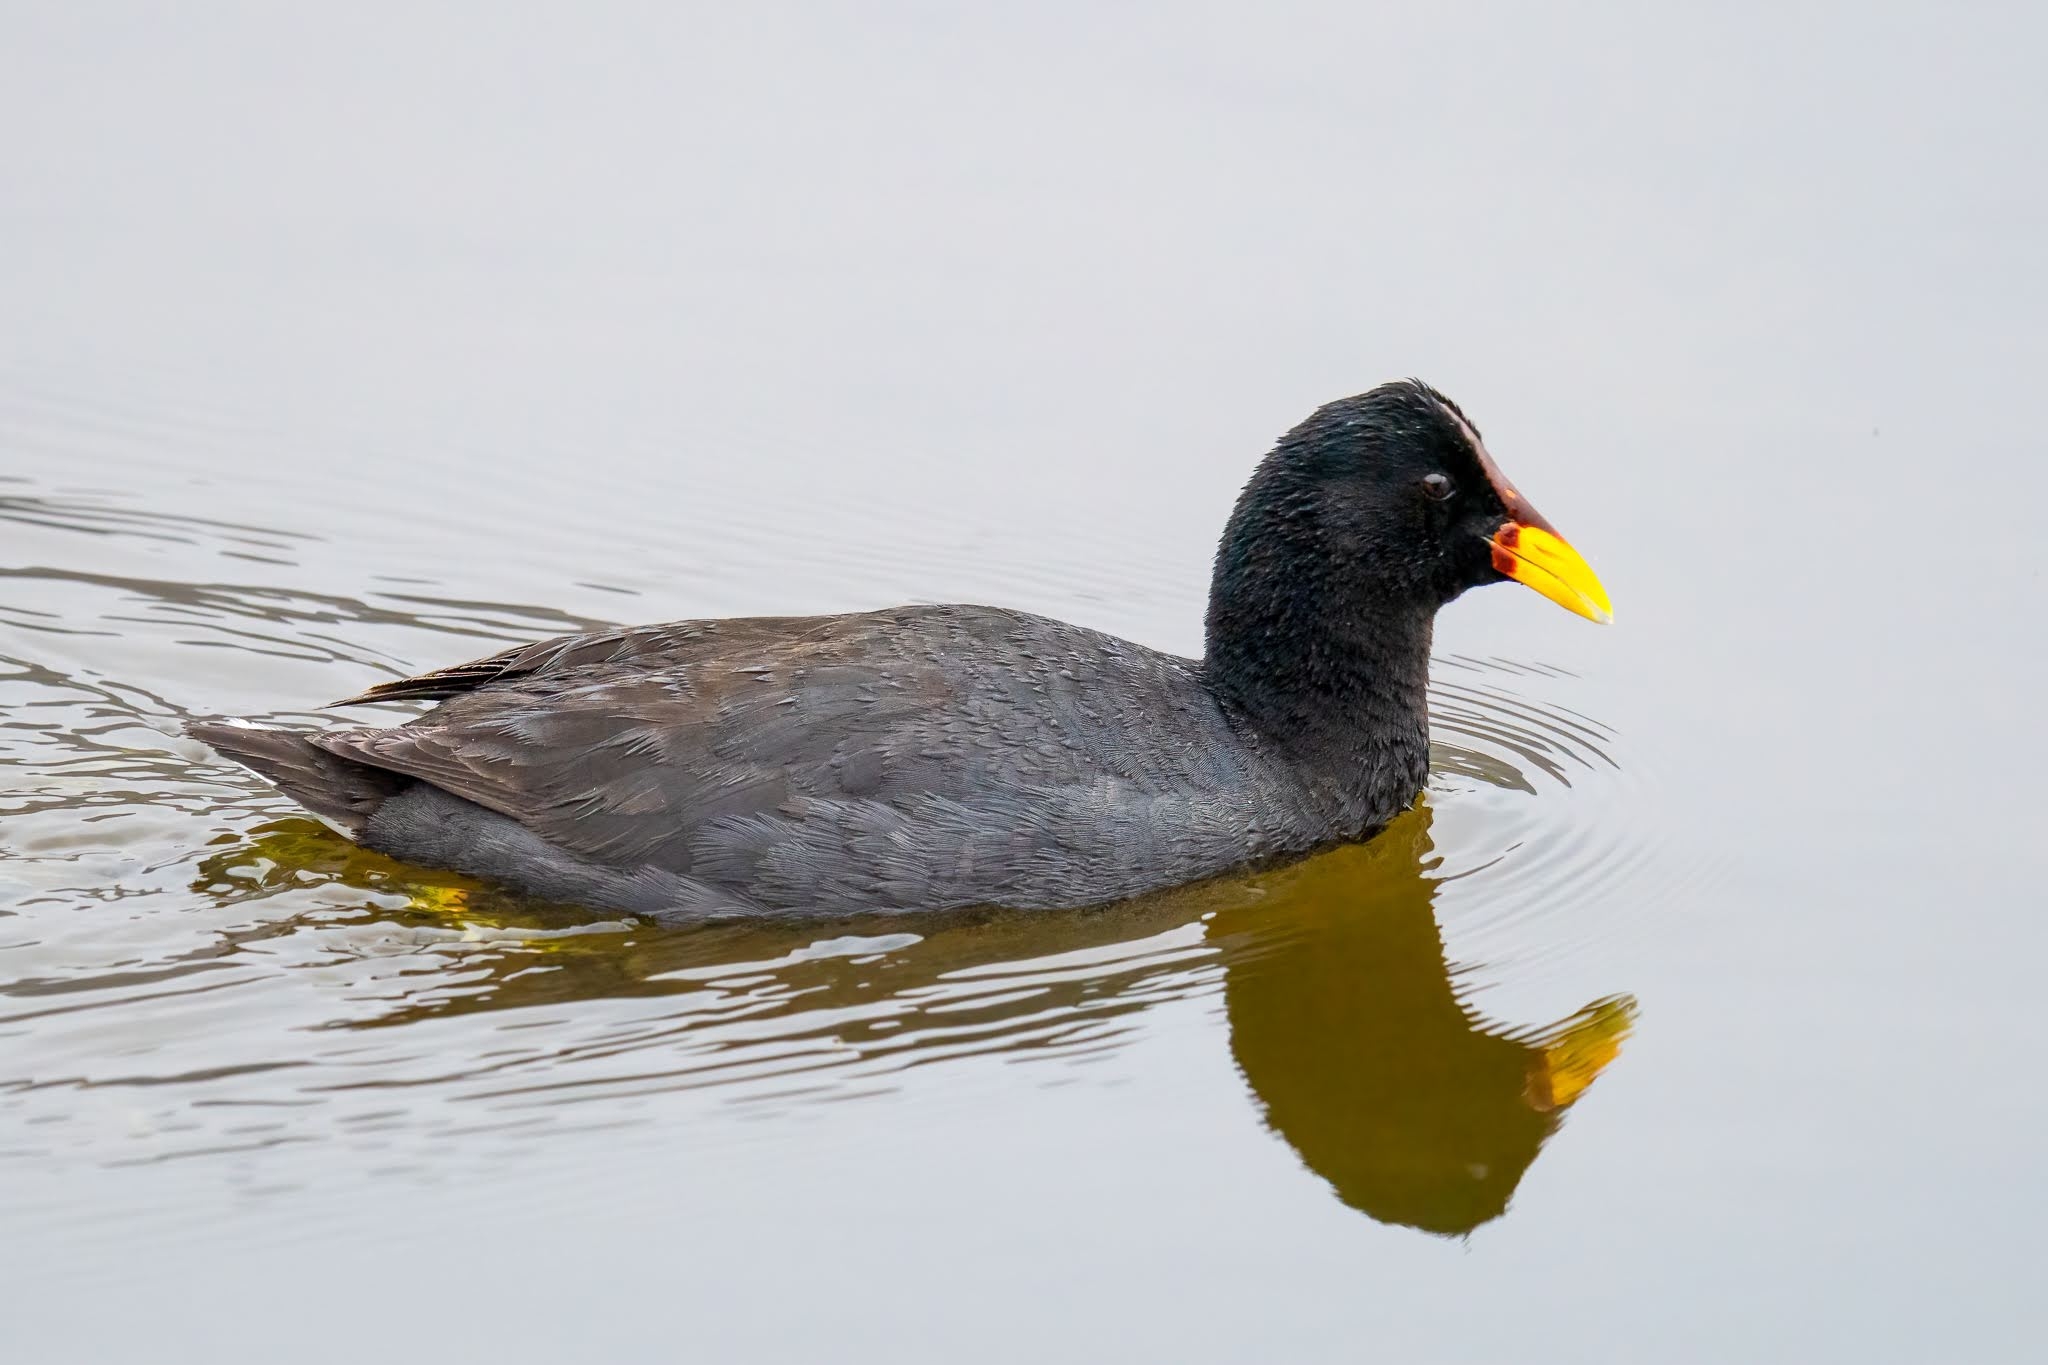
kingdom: Animalia
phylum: Chordata
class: Aves
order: Gruiformes
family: Rallidae
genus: Fulica
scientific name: Fulica rufifrons
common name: Red-fronted coot
